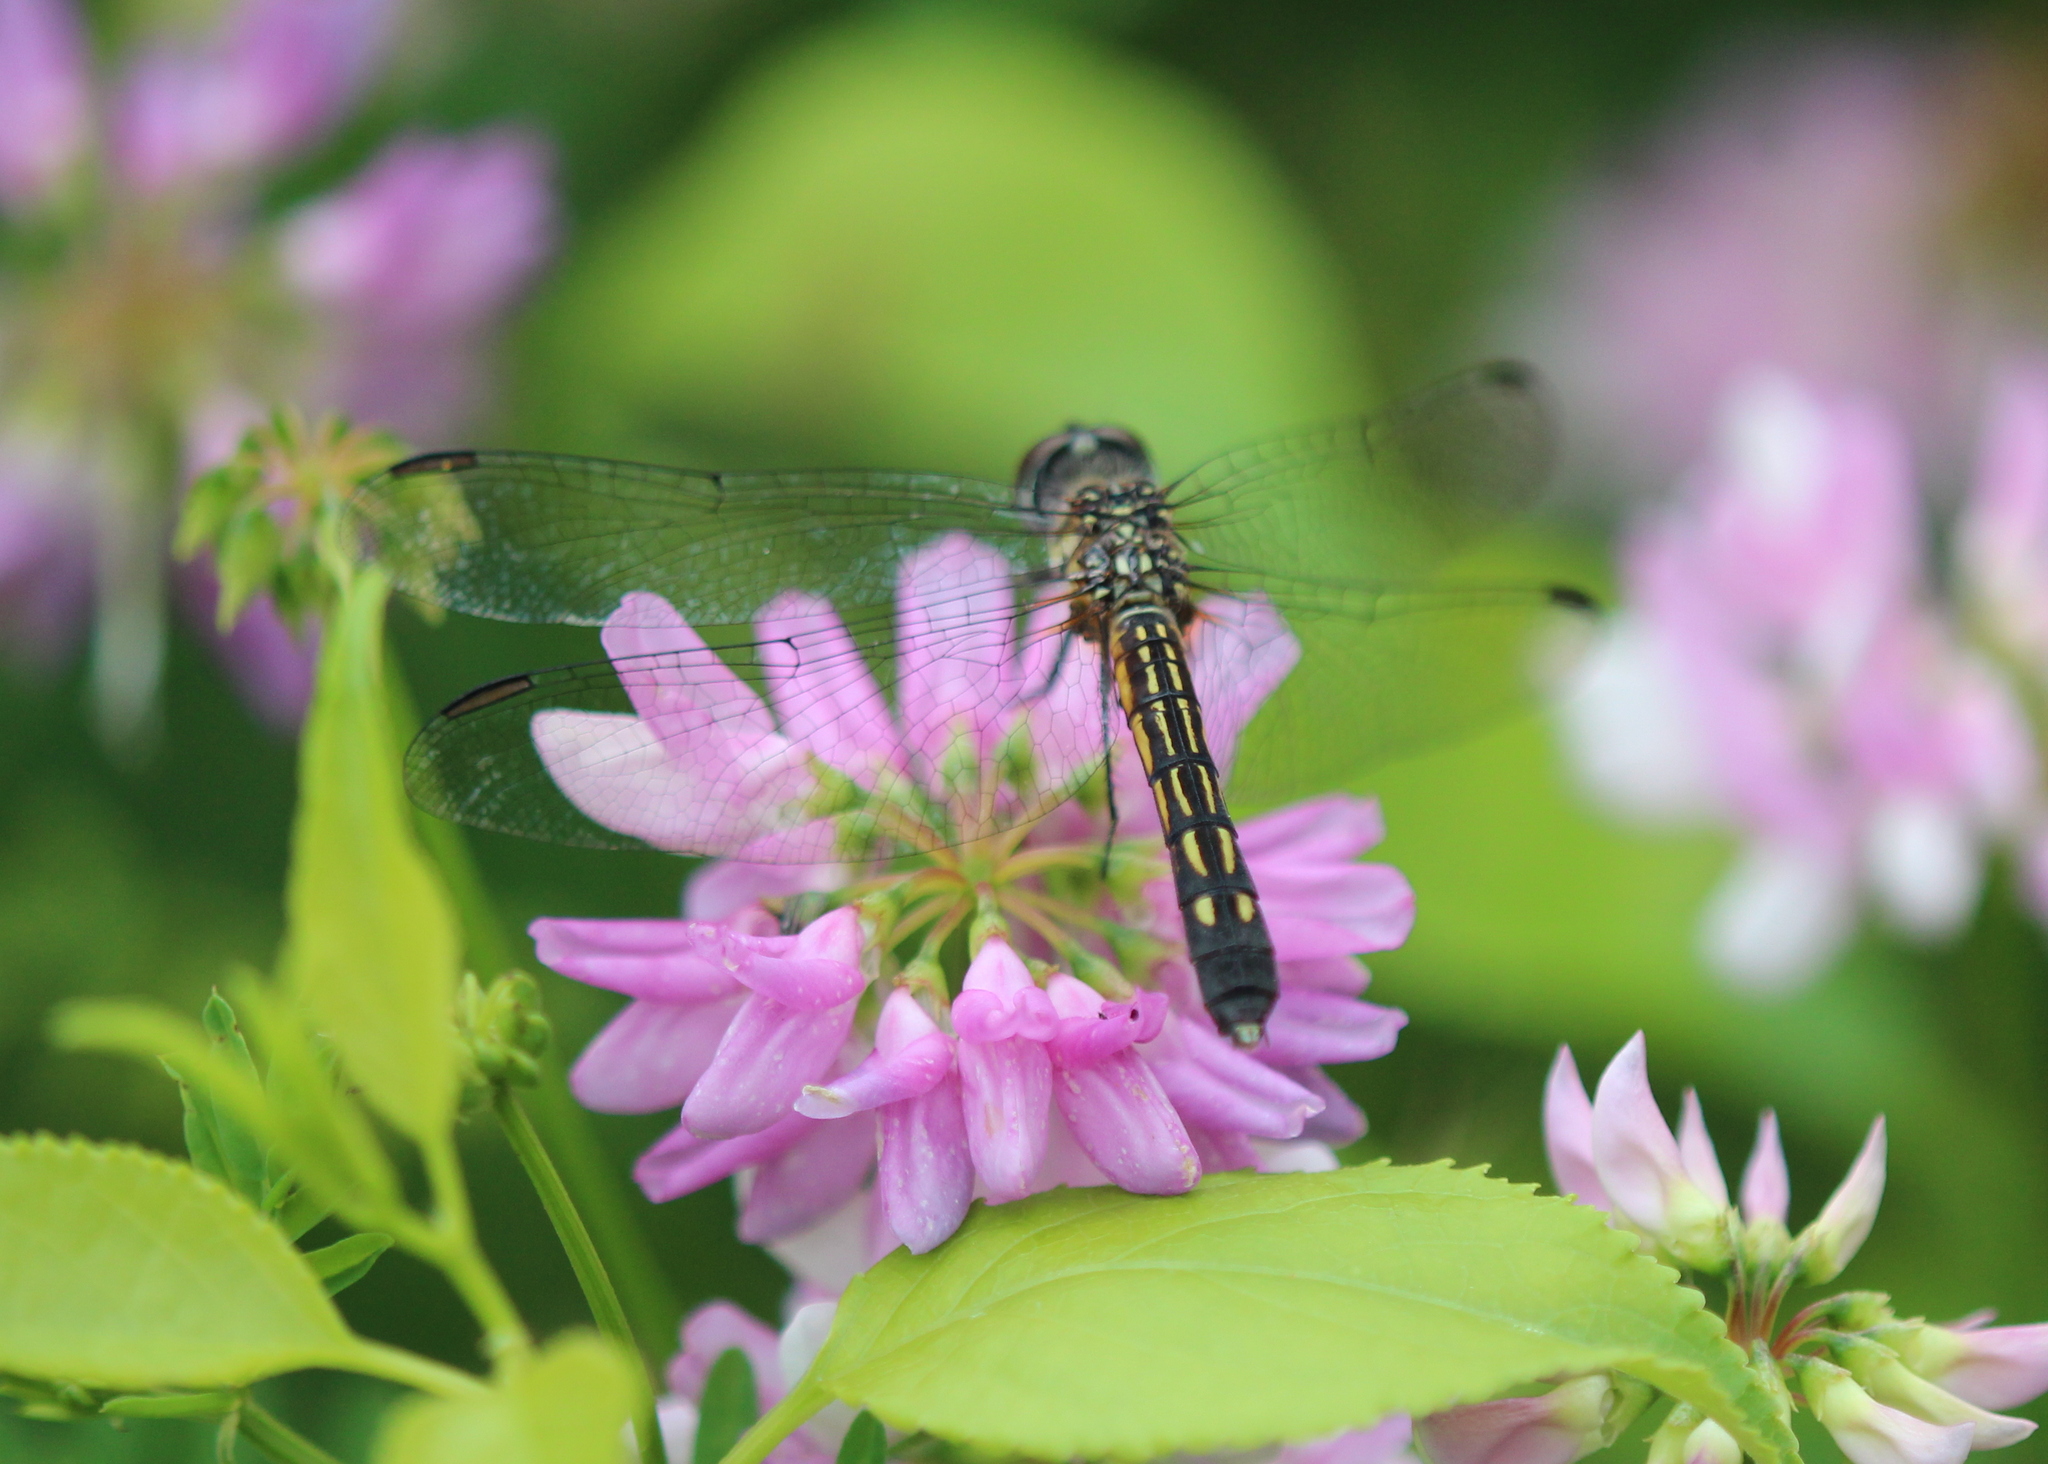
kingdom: Animalia
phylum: Arthropoda
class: Insecta
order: Odonata
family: Libellulidae
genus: Pachydiplax
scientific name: Pachydiplax longipennis
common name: Blue dasher
